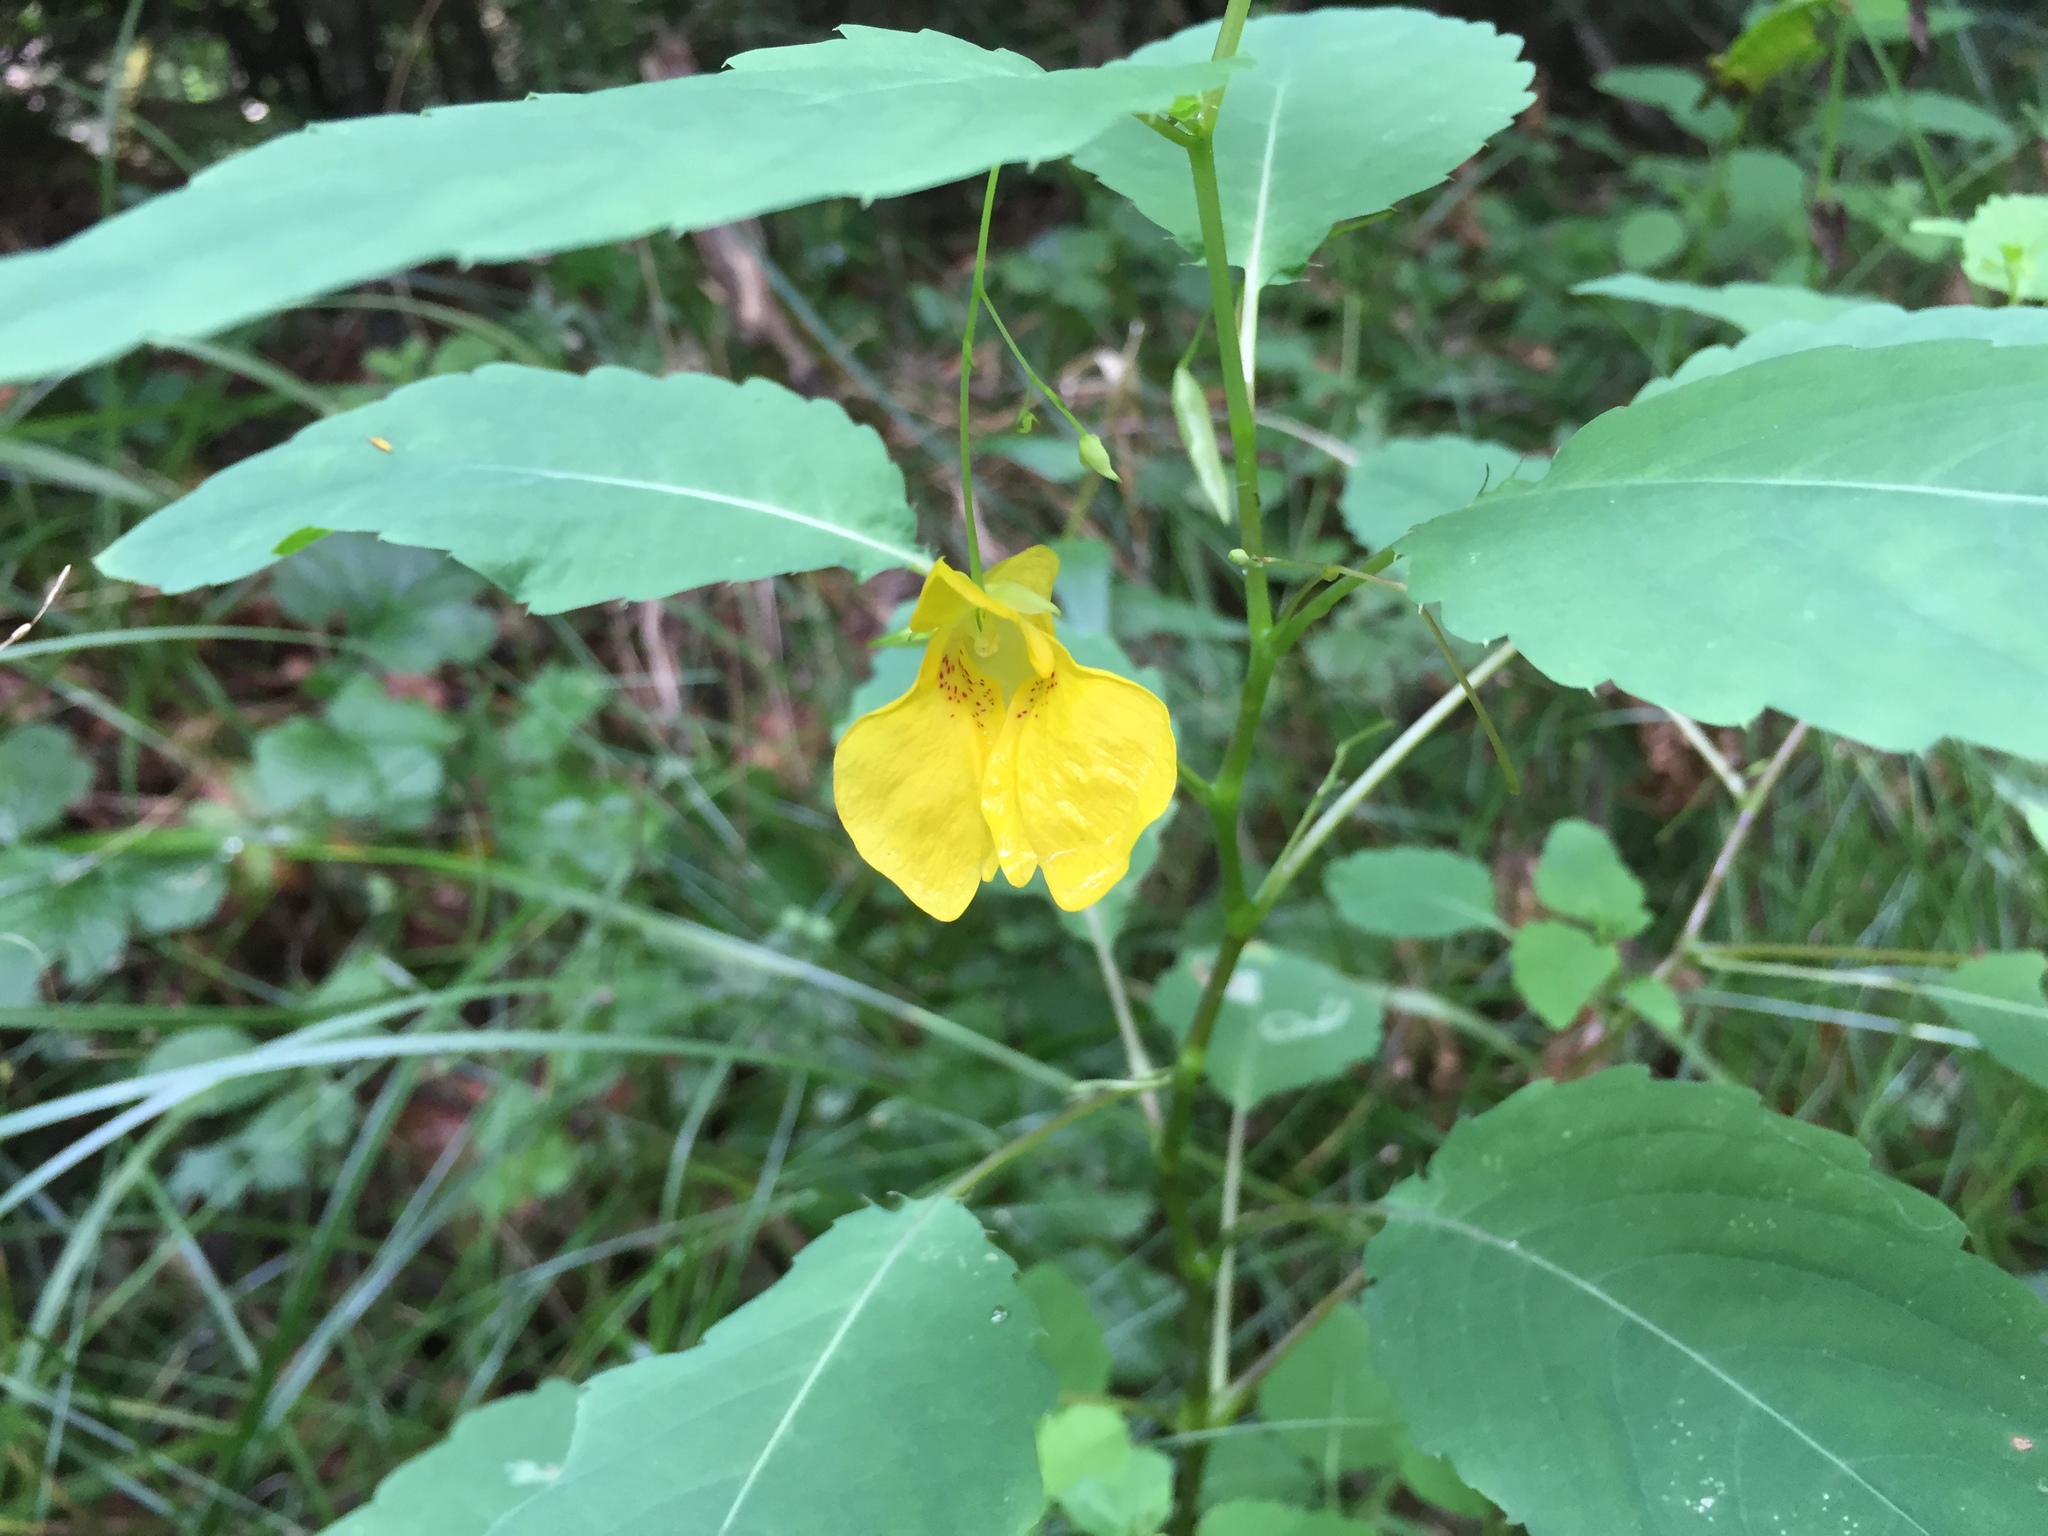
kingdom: Plantae
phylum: Tracheophyta
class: Magnoliopsida
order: Ericales
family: Balsaminaceae
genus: Impatiens
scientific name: Impatiens noli-tangere
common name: Touch-me-not balsam
